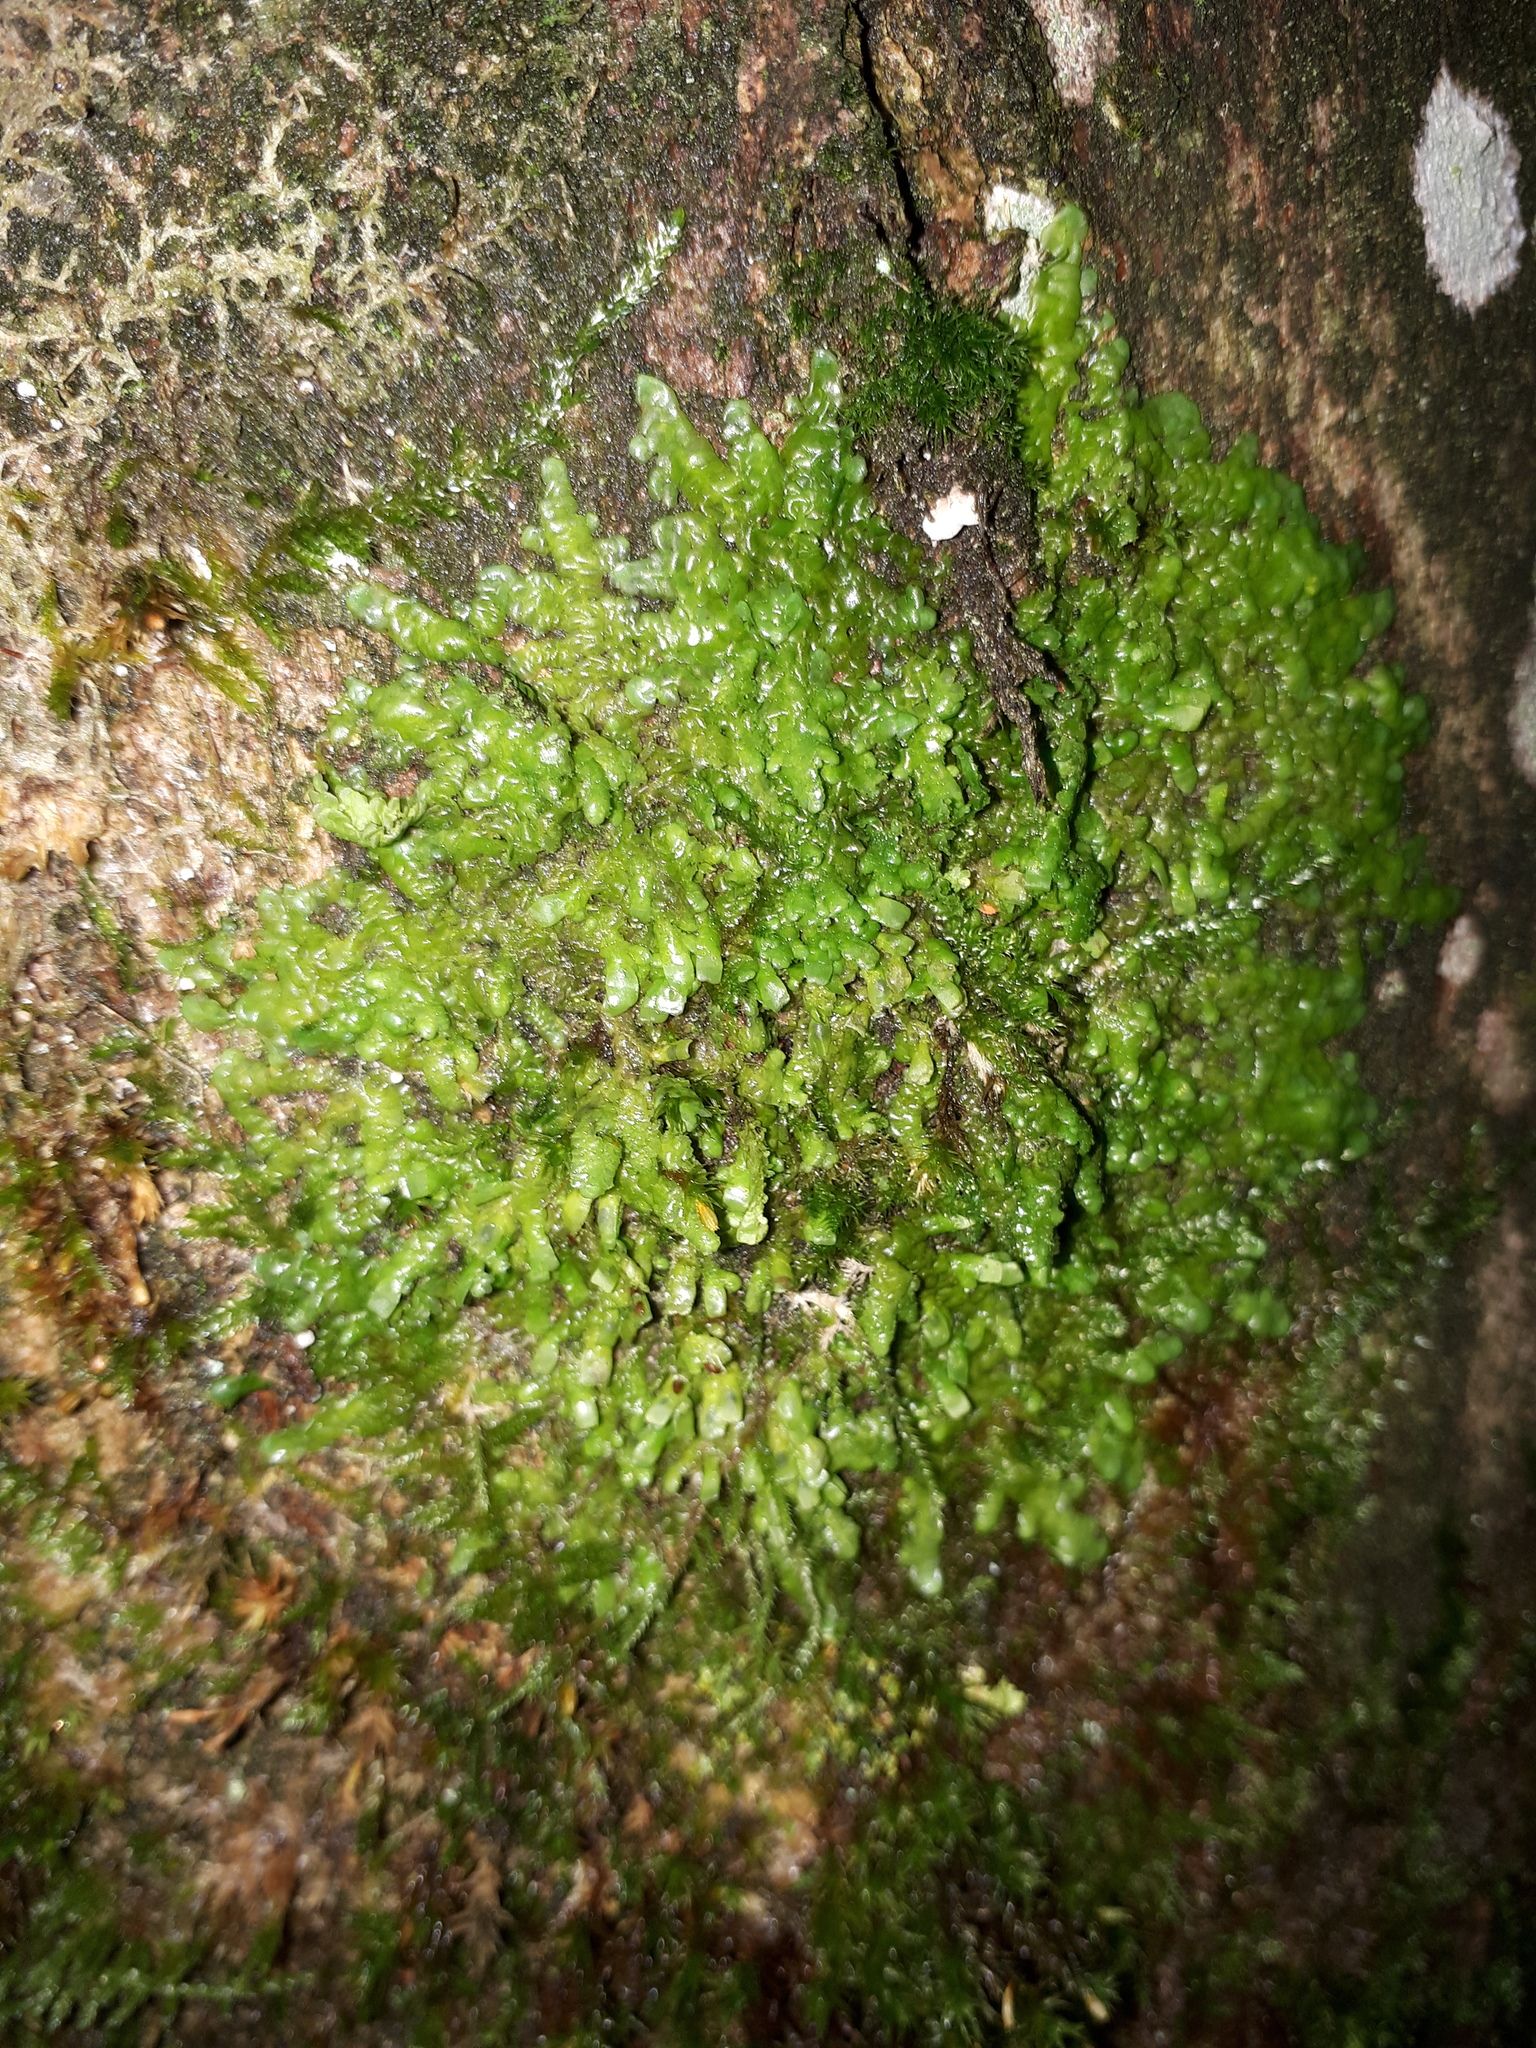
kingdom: Plantae
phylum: Marchantiophyta
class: Jungermanniopsida
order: Porellales
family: Radulaceae
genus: Radula
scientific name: Radula complanata
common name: Flat-leaved scalewort
